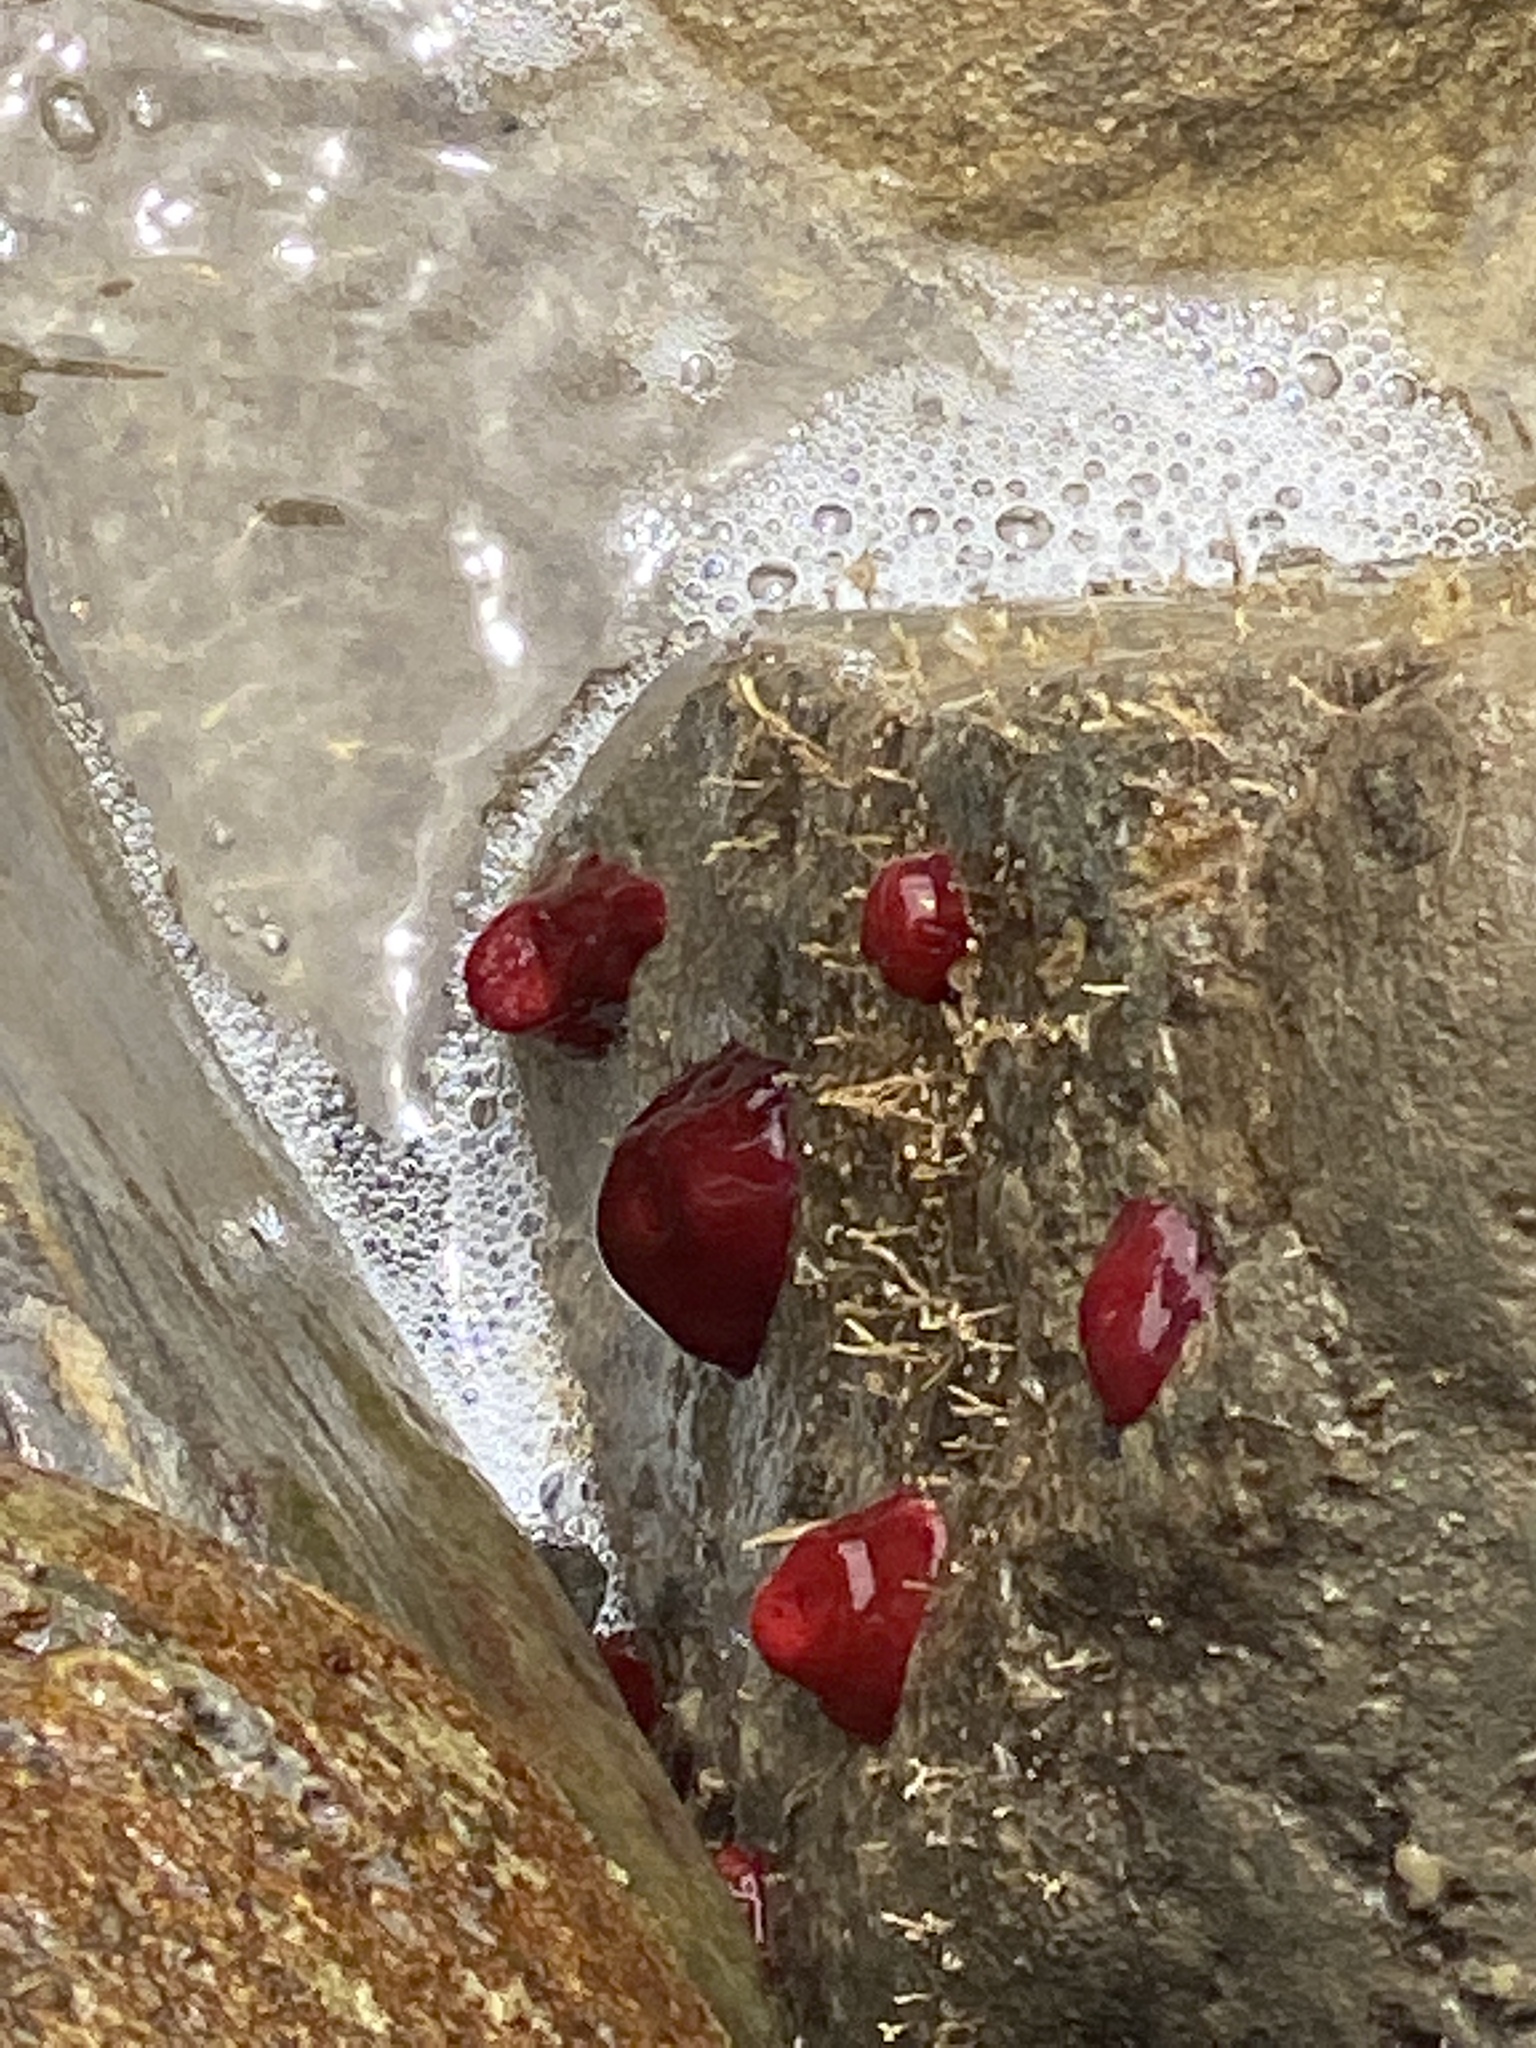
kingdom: Animalia
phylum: Cnidaria
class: Anthozoa
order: Actiniaria
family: Actiniidae
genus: Actinia
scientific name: Actinia tenebrosa
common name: Waratah anemone
